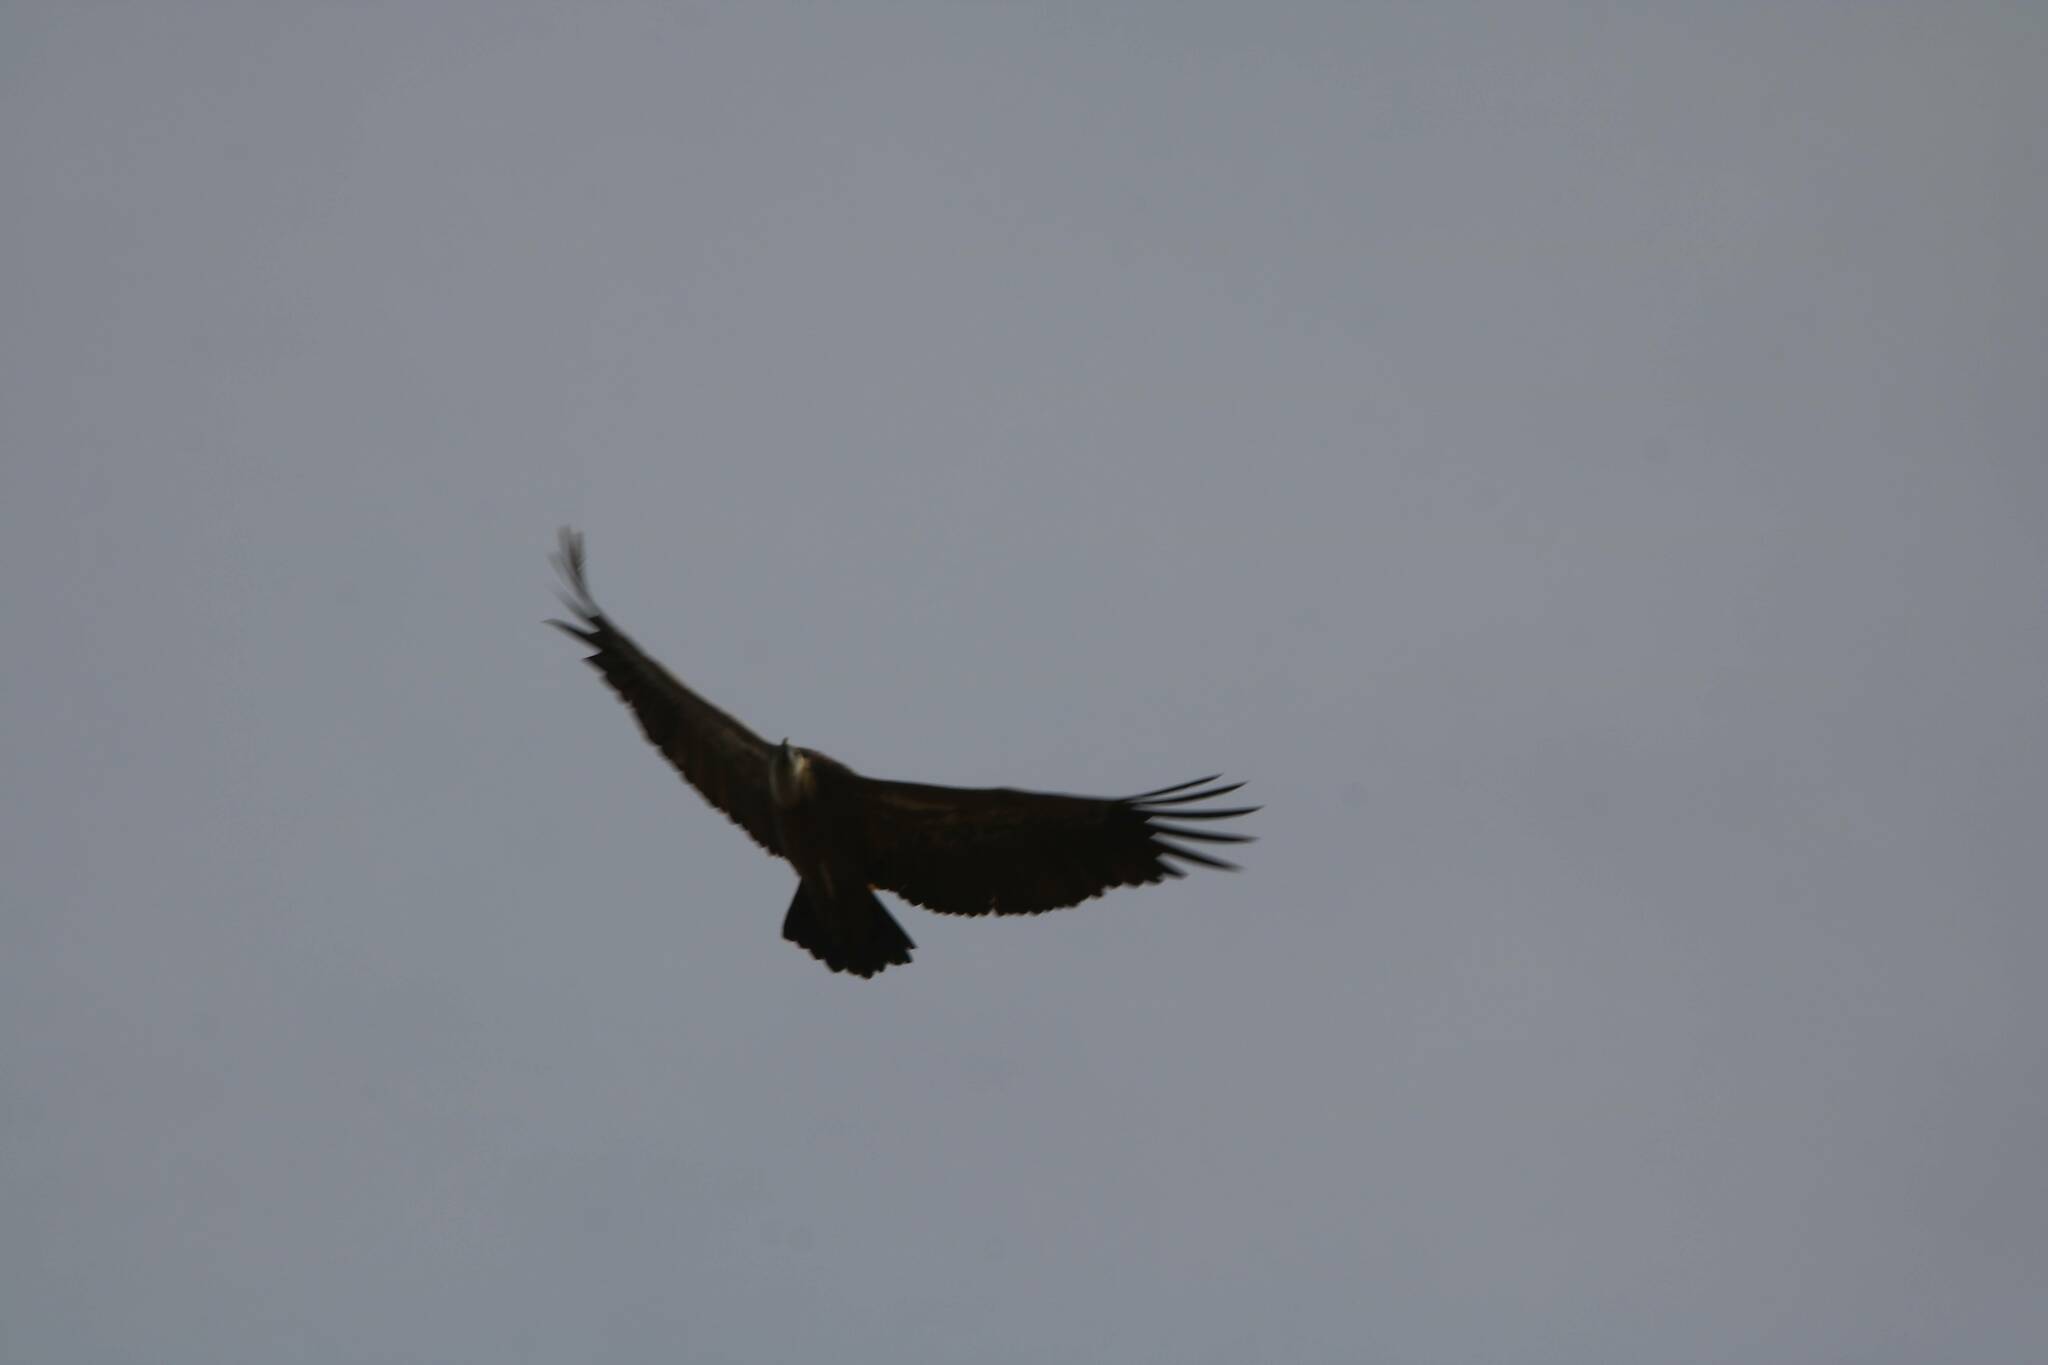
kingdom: Animalia
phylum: Chordata
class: Aves
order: Accipitriformes
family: Accipitridae
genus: Gyps
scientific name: Gyps fulvus
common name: Griffon vulture
